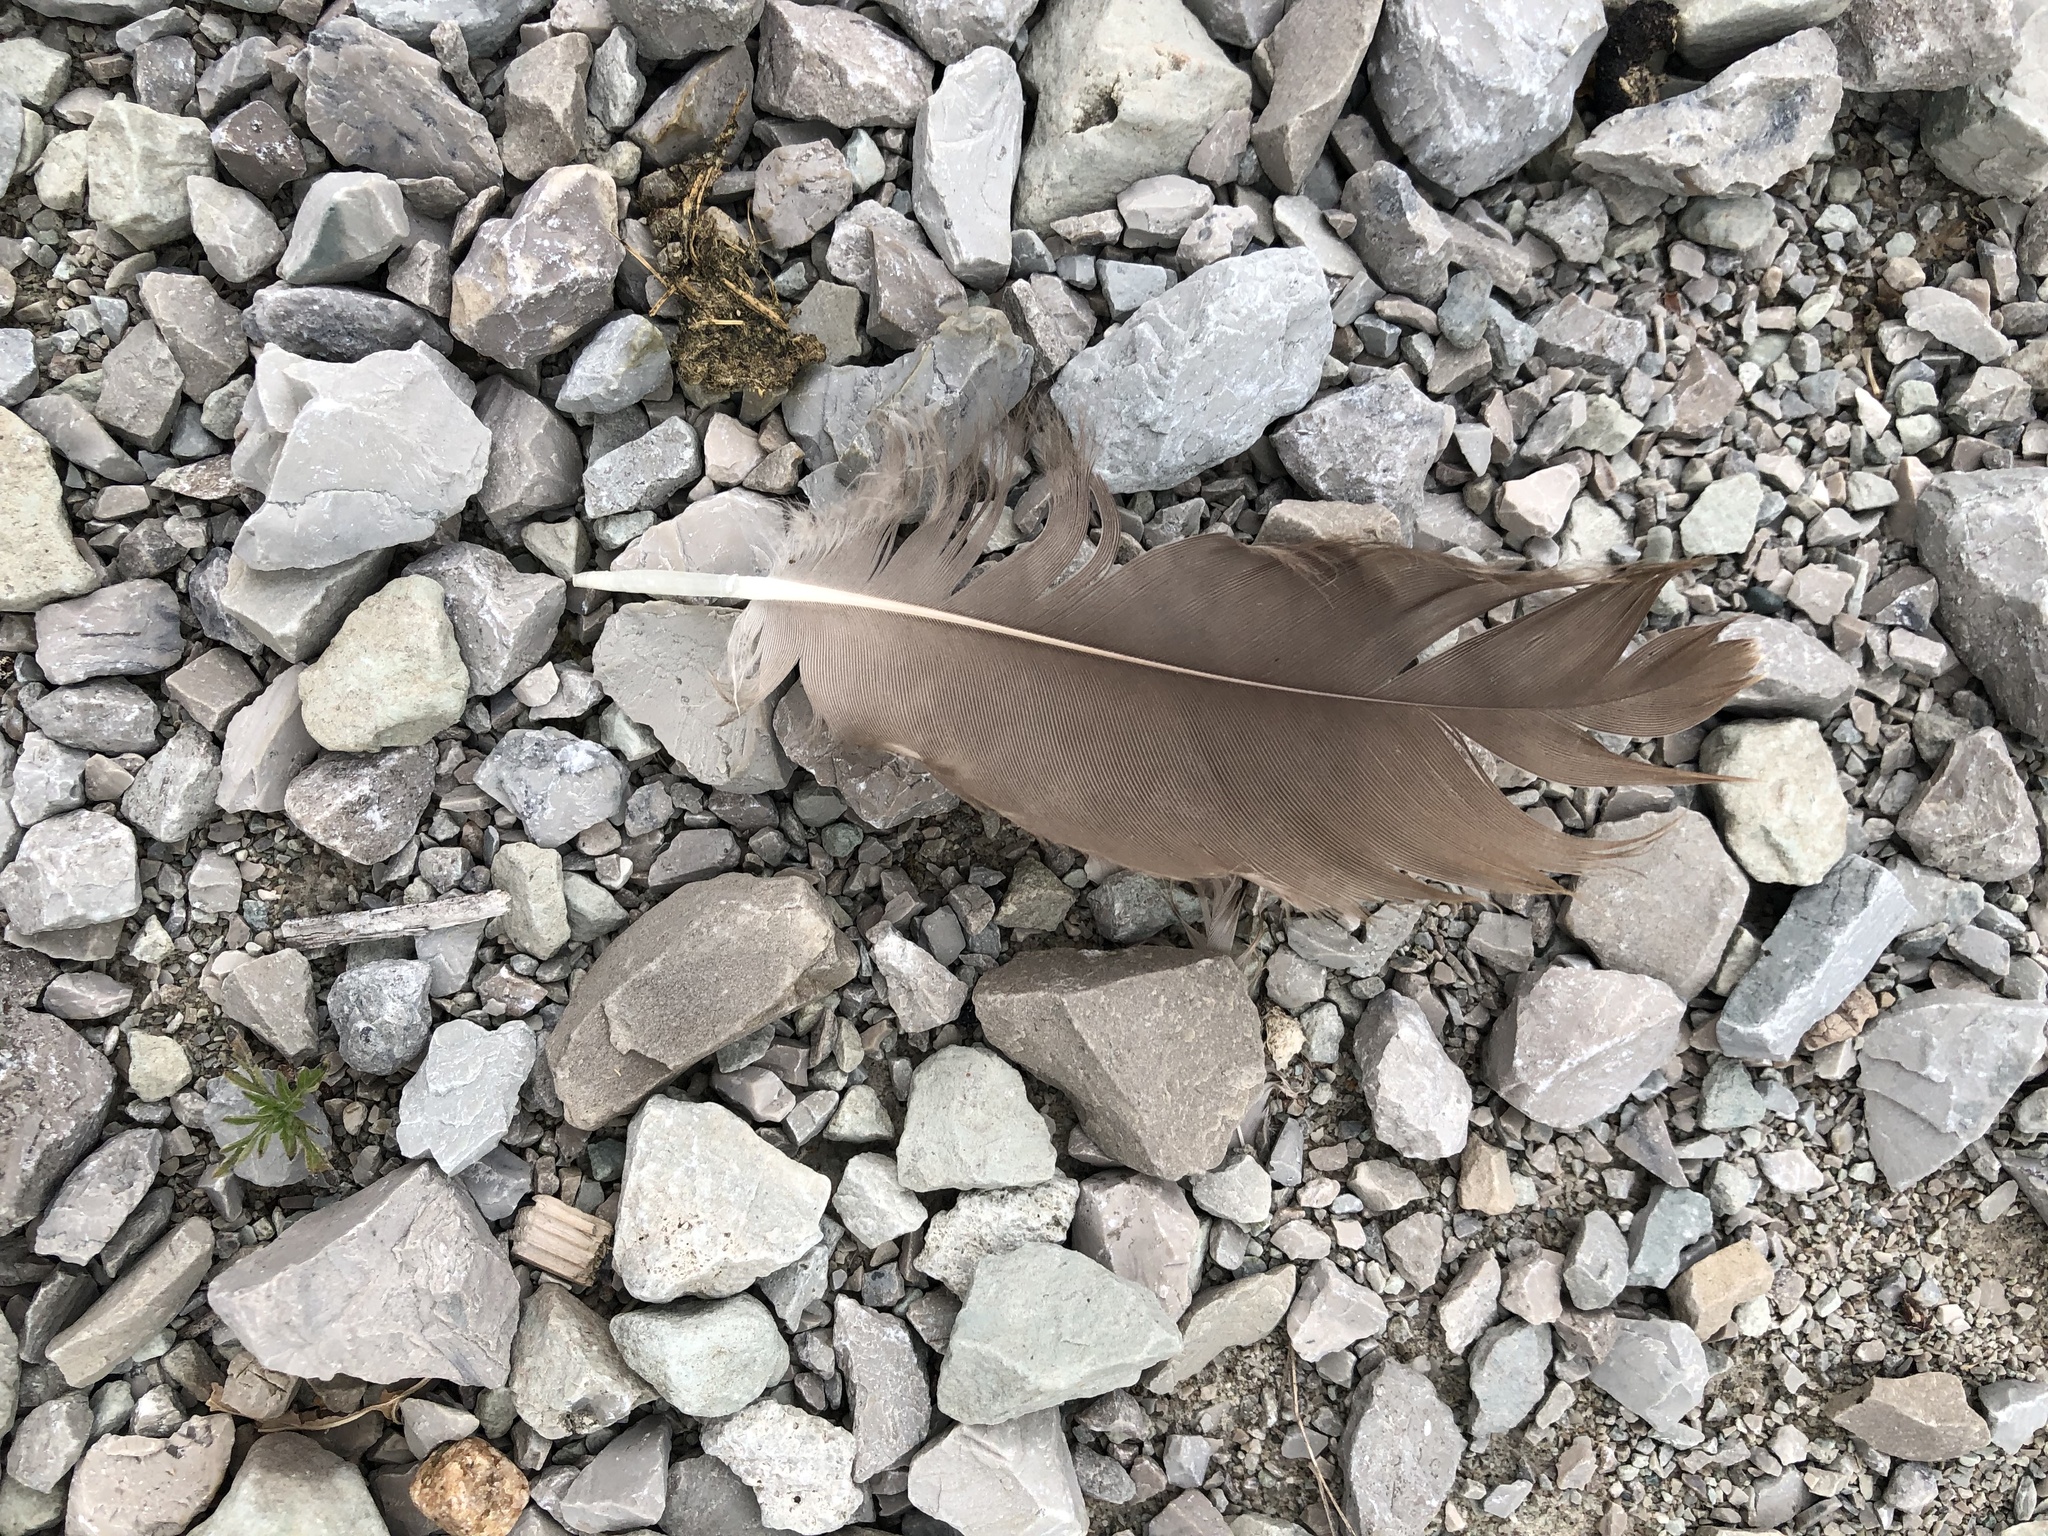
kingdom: Animalia
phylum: Chordata
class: Aves
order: Anseriformes
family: Anatidae
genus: Branta
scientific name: Branta canadensis
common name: Canada goose
